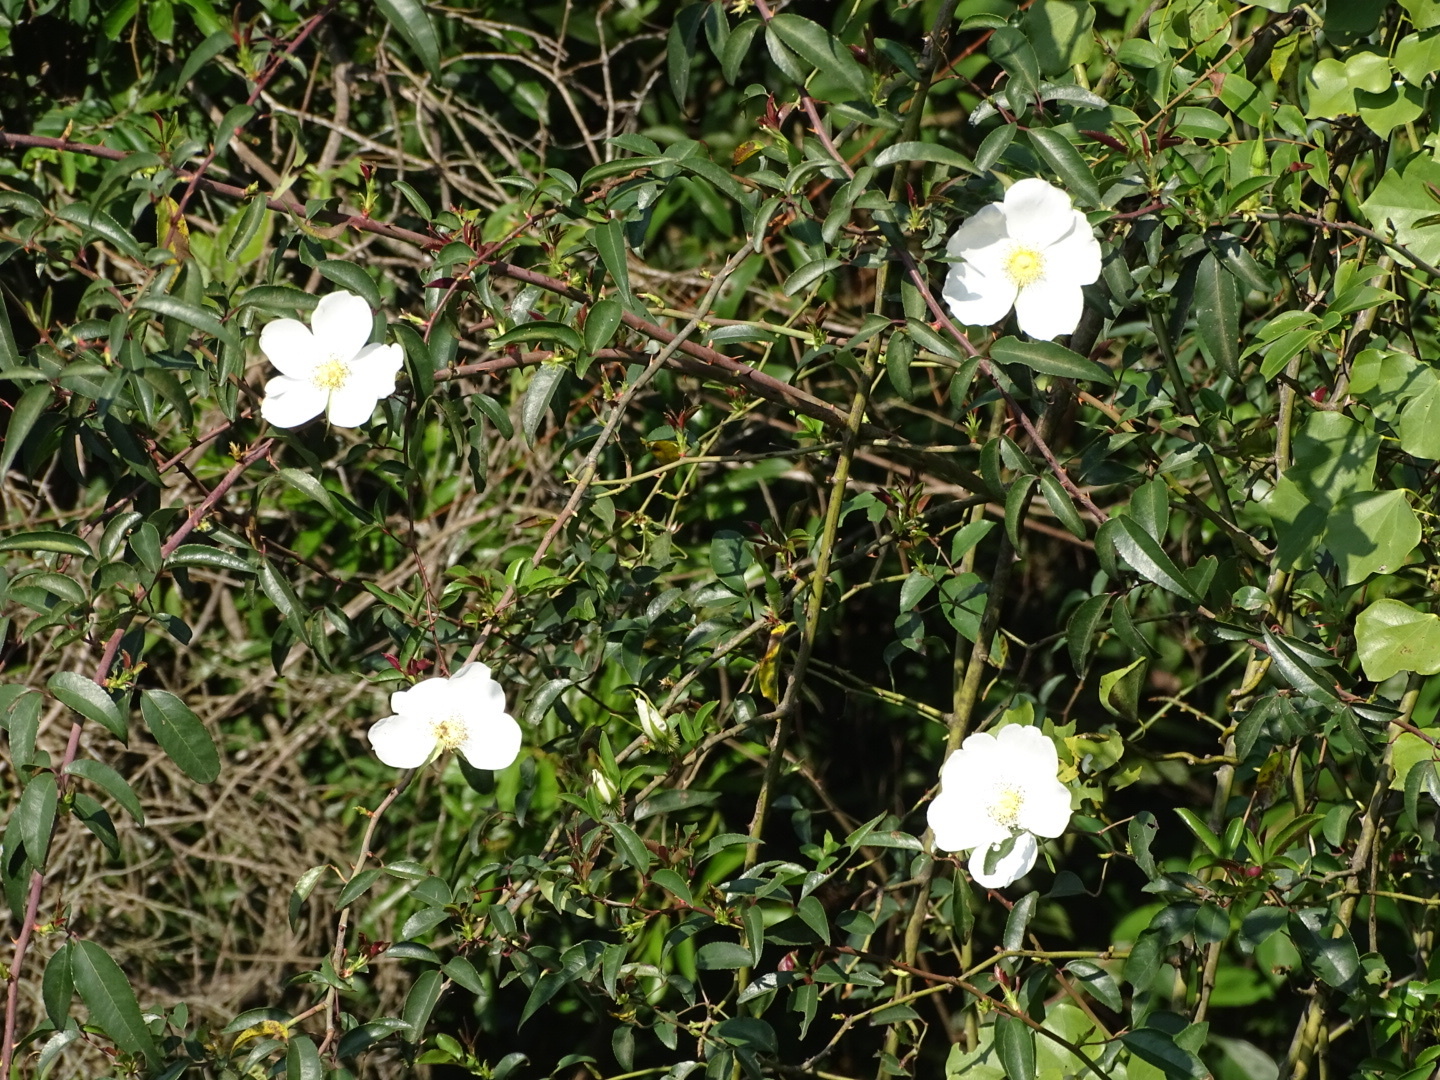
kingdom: Plantae
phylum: Tracheophyta
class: Magnoliopsida
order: Rosales
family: Rosaceae
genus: Rosa
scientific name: Rosa laevigata
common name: Cherokee rose
